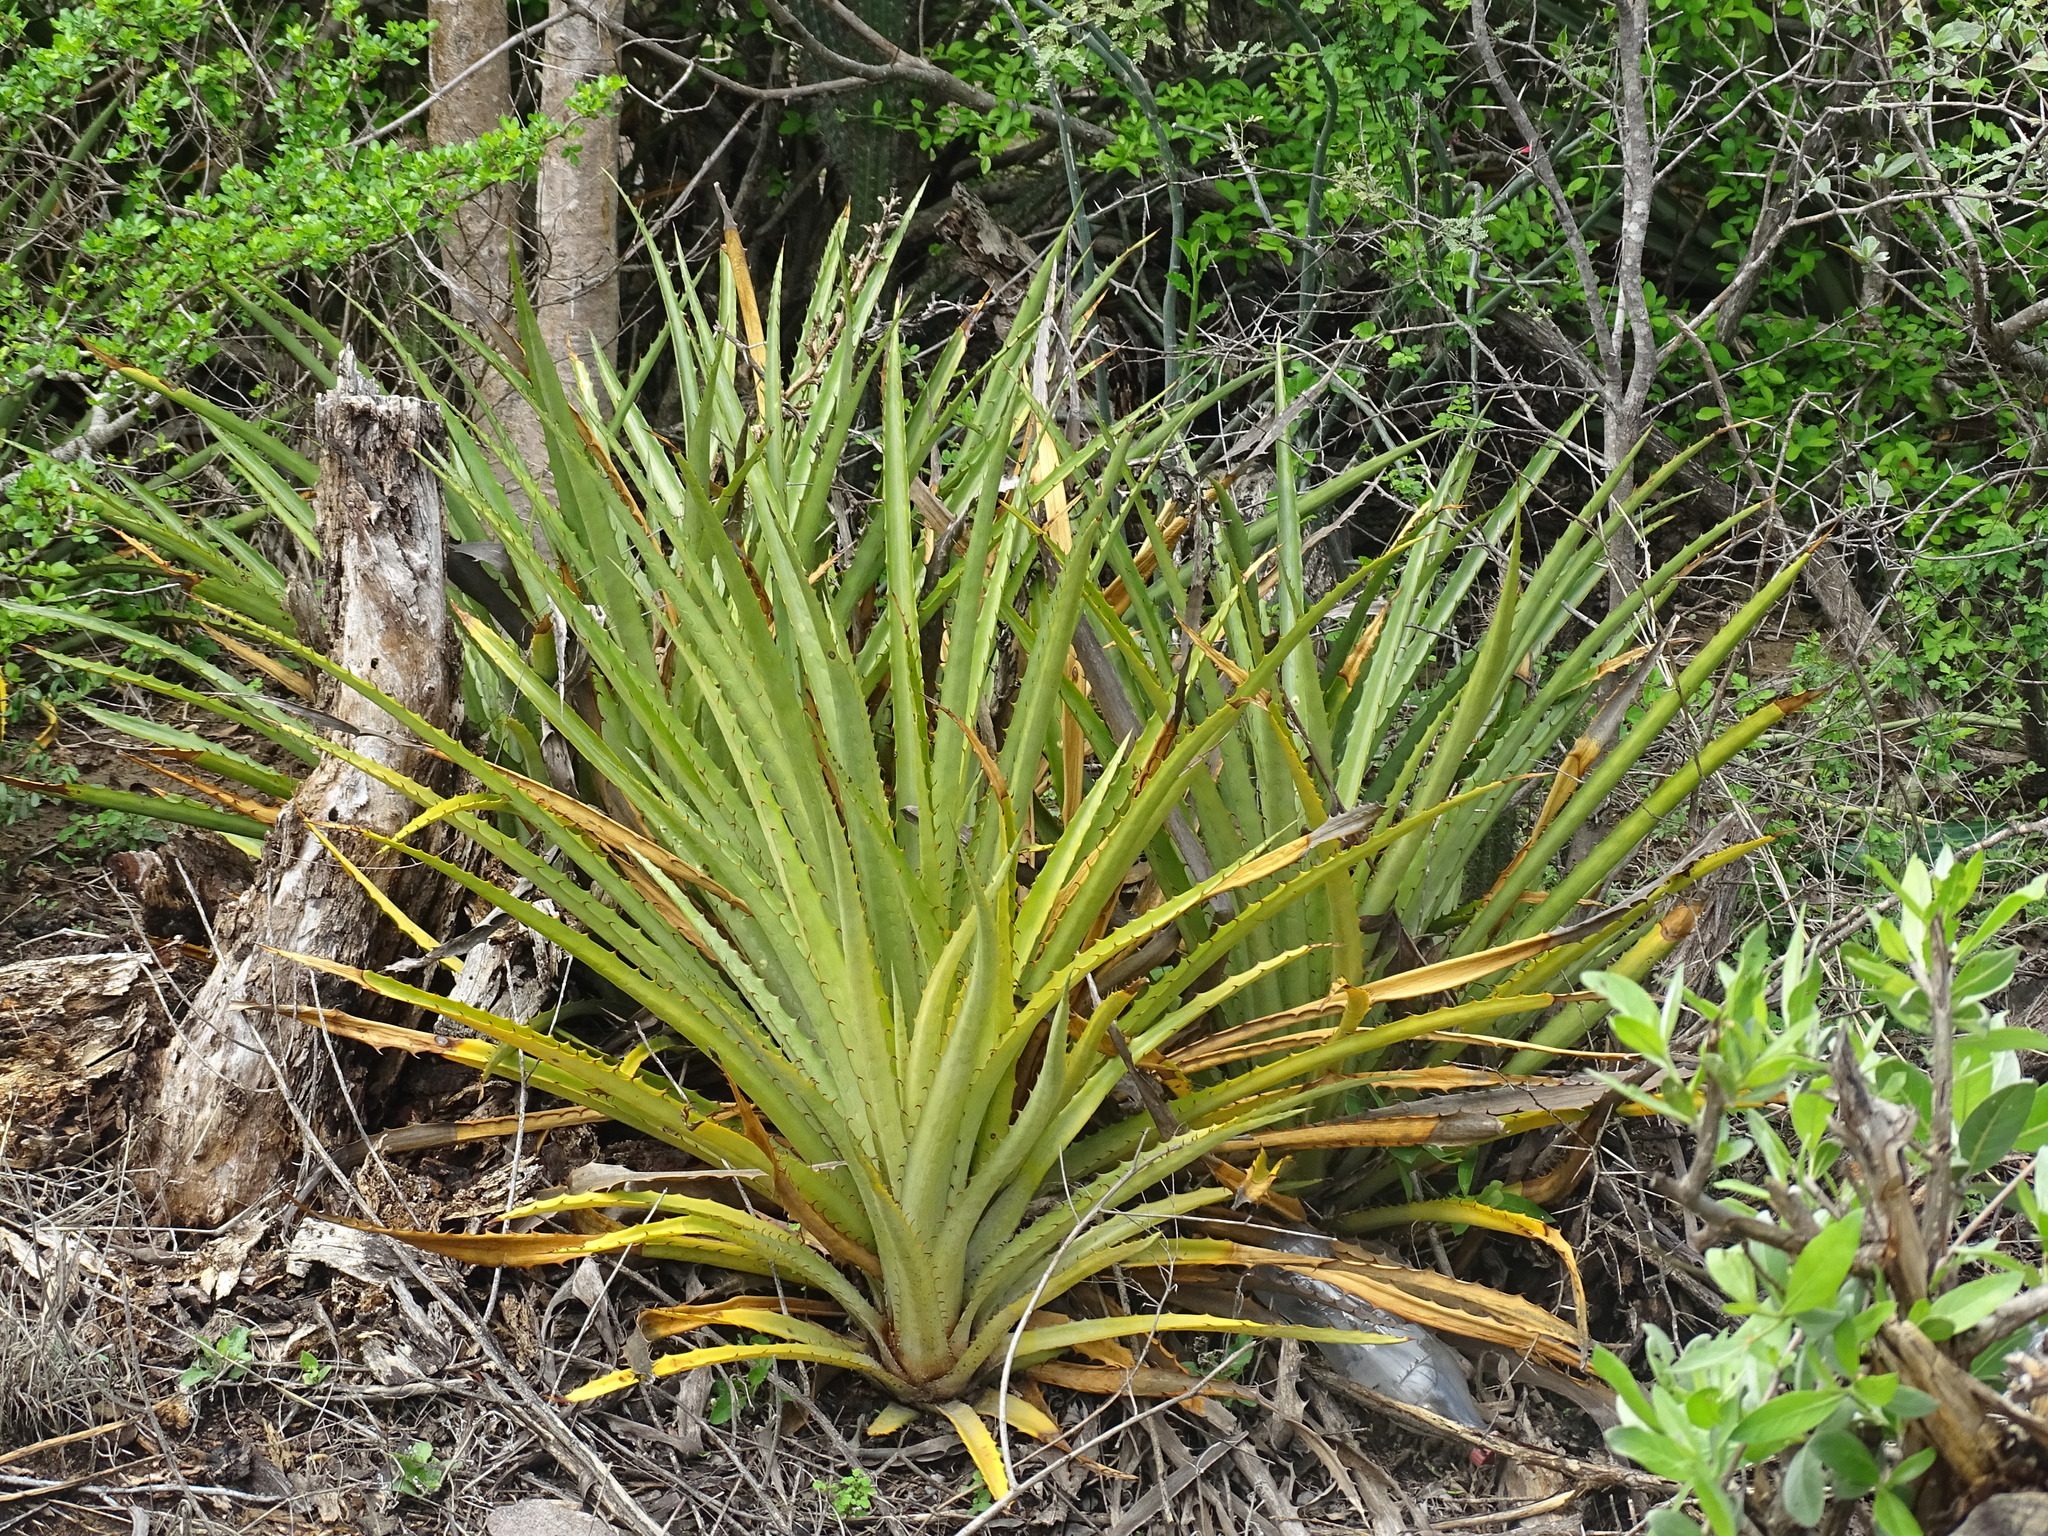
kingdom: Plantae
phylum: Tracheophyta
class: Liliopsida
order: Poales
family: Bromeliaceae
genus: Bromelia
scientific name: Bromelia pinguin
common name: Pinguin
